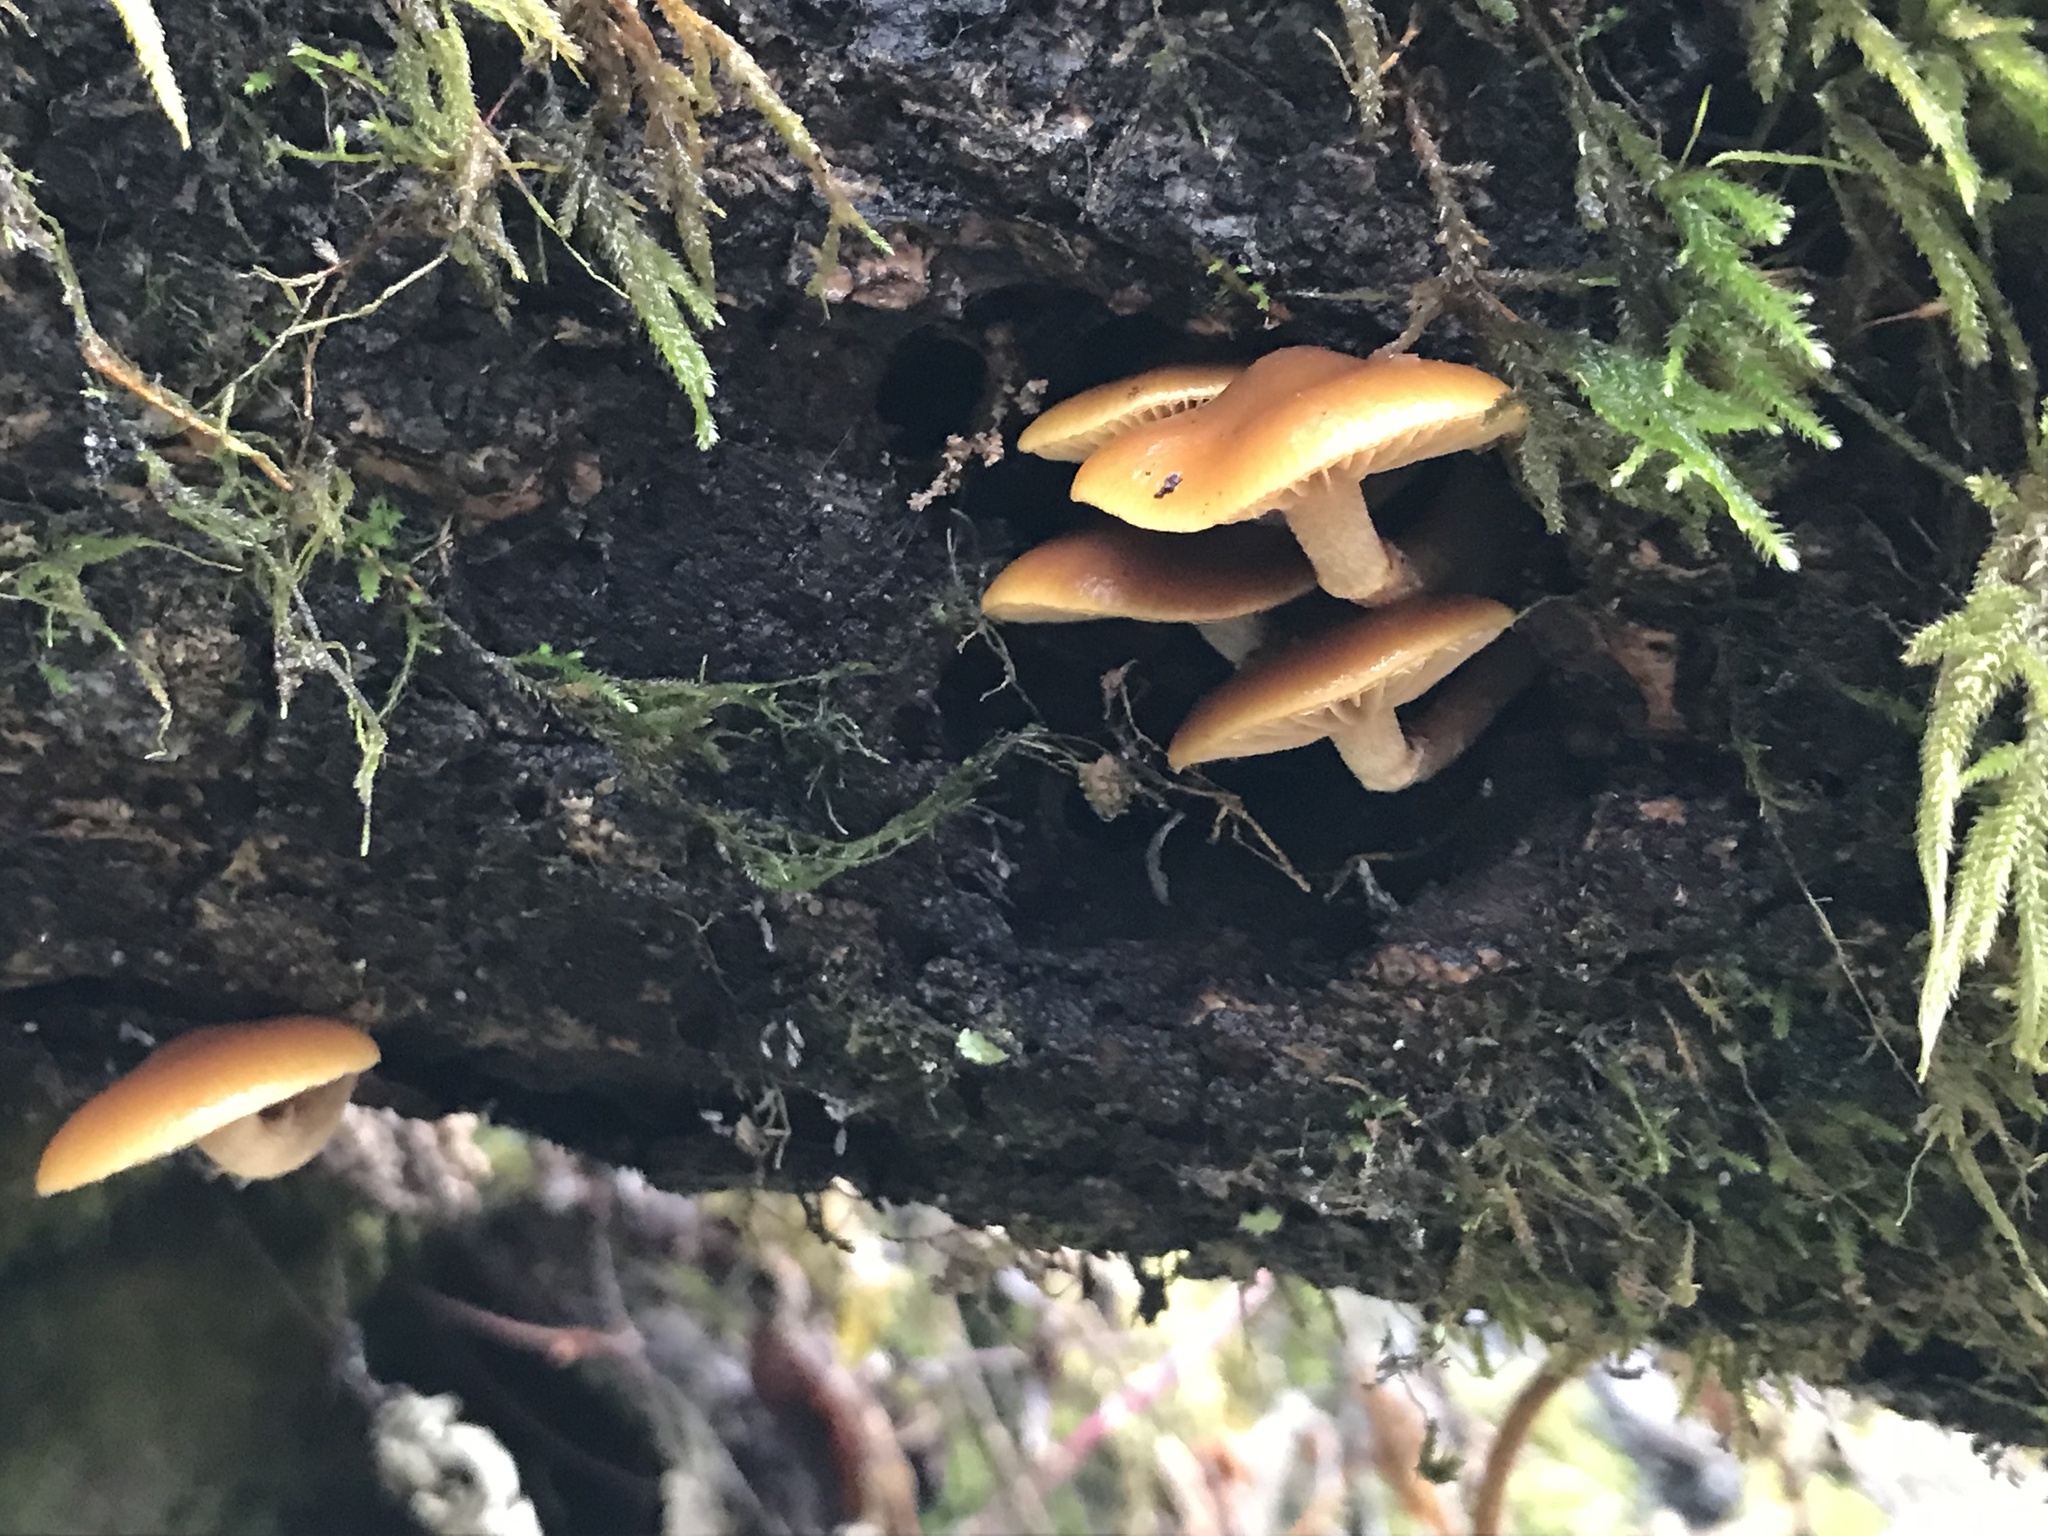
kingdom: Fungi
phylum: Basidiomycota
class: Agaricomycetes
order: Agaricales
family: Hymenogastraceae
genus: Galerina
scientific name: Galerina marginata
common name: Funeral bell
